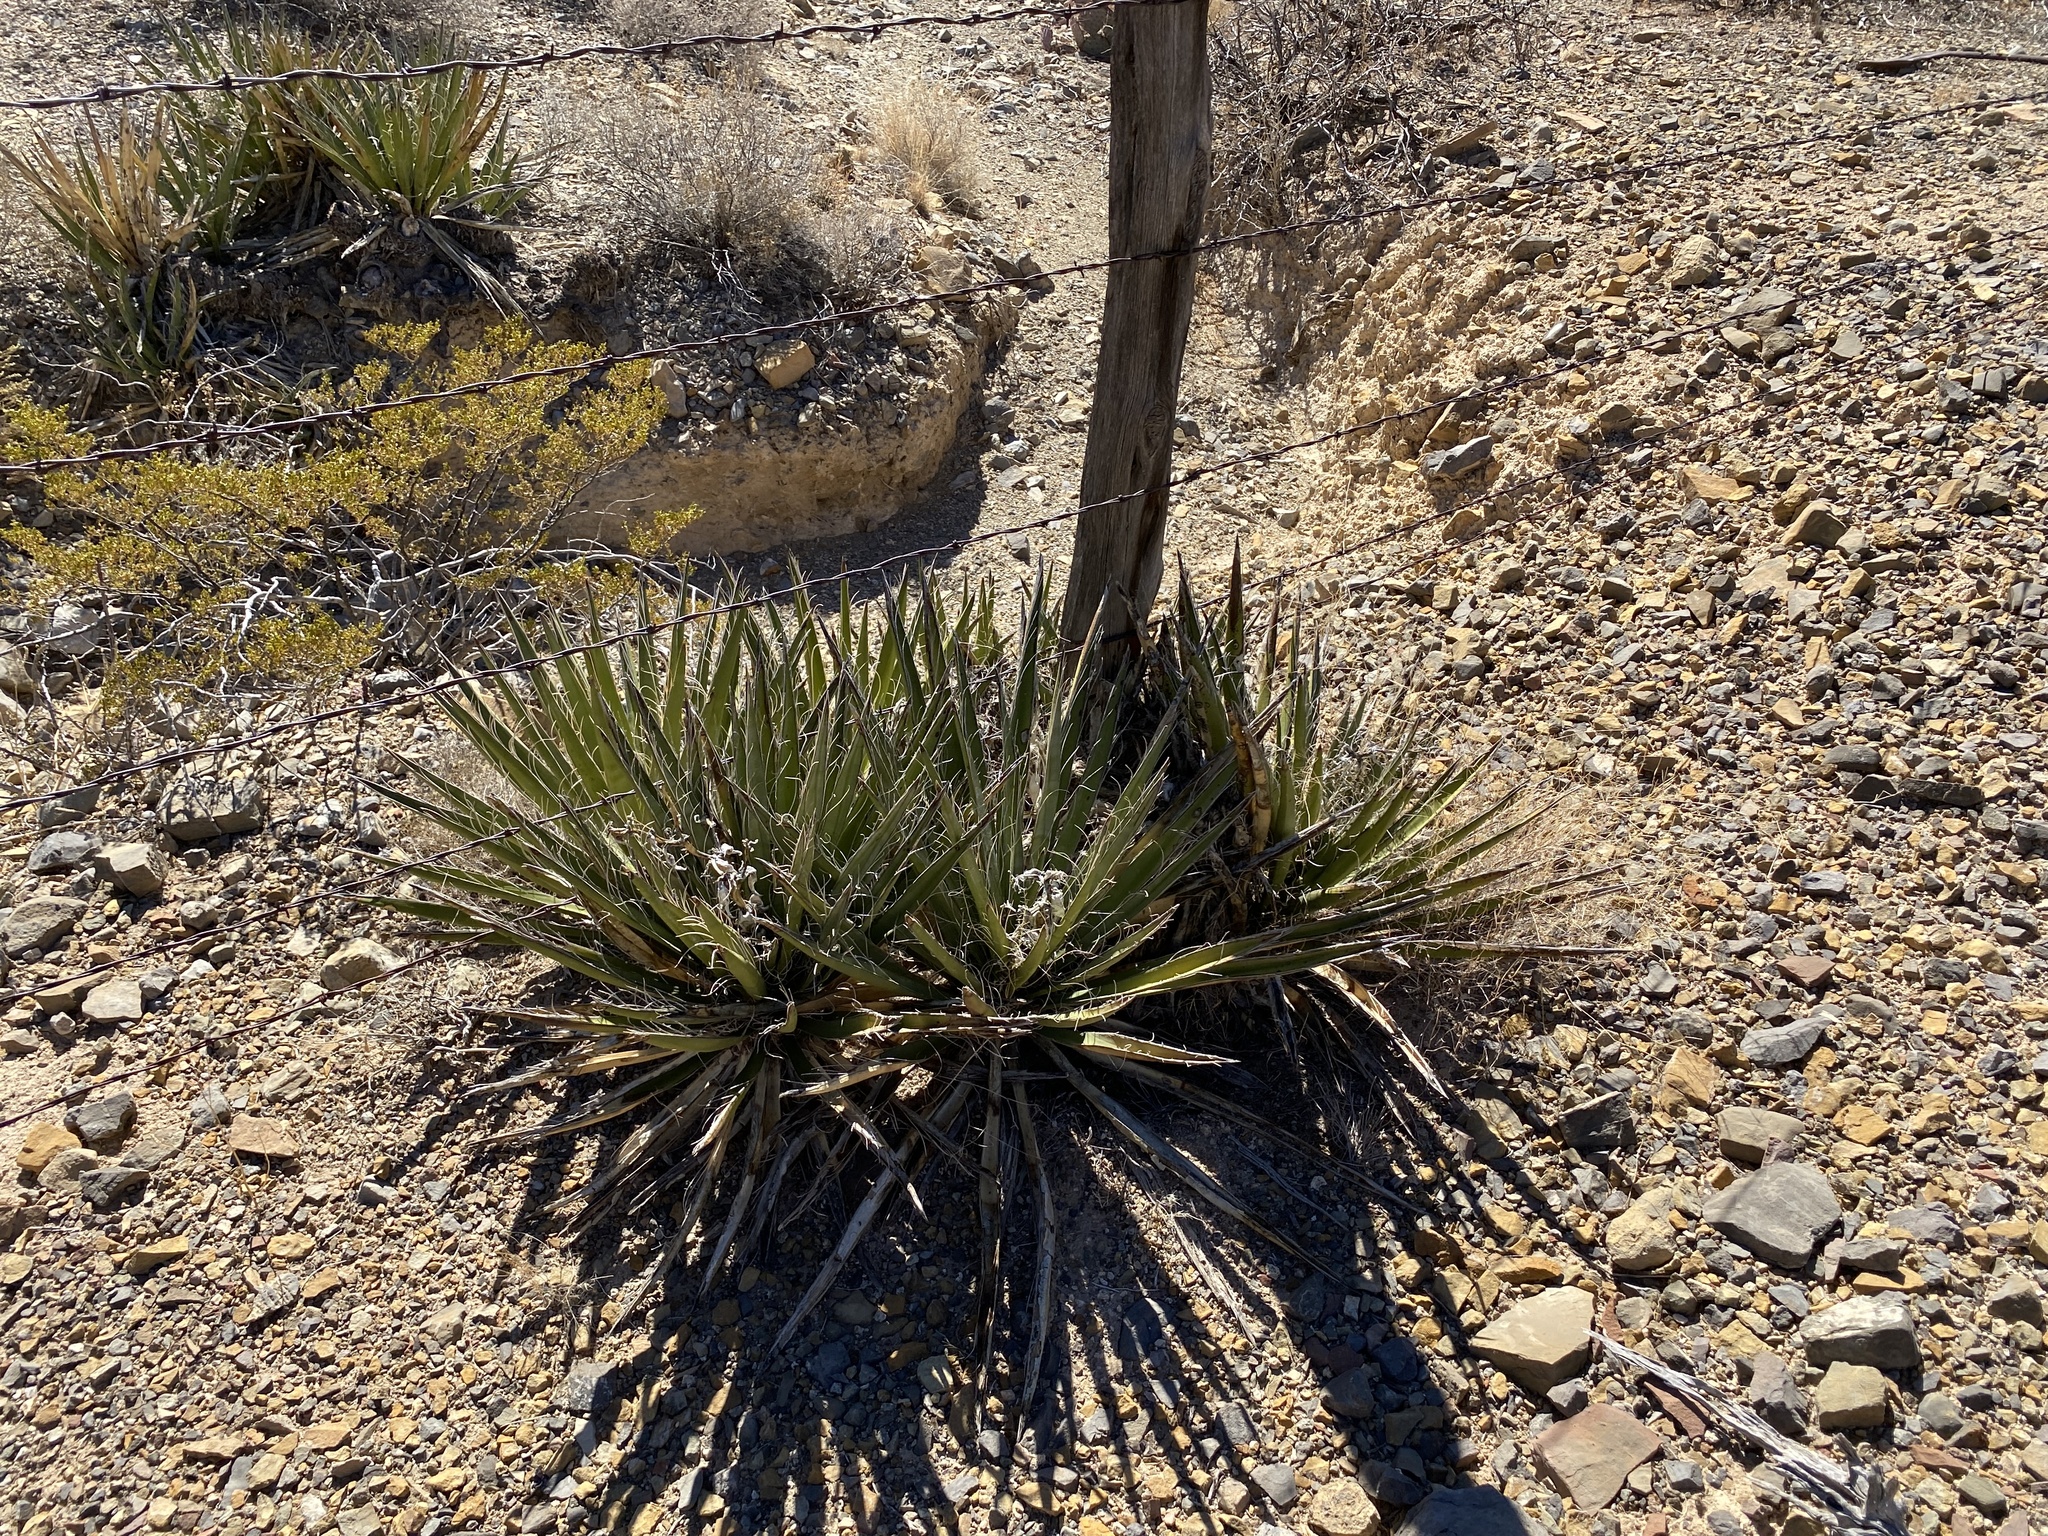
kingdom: Plantae
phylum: Tracheophyta
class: Liliopsida
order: Asparagales
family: Asparagaceae
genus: Yucca
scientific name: Yucca baccata
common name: Banana yucca
